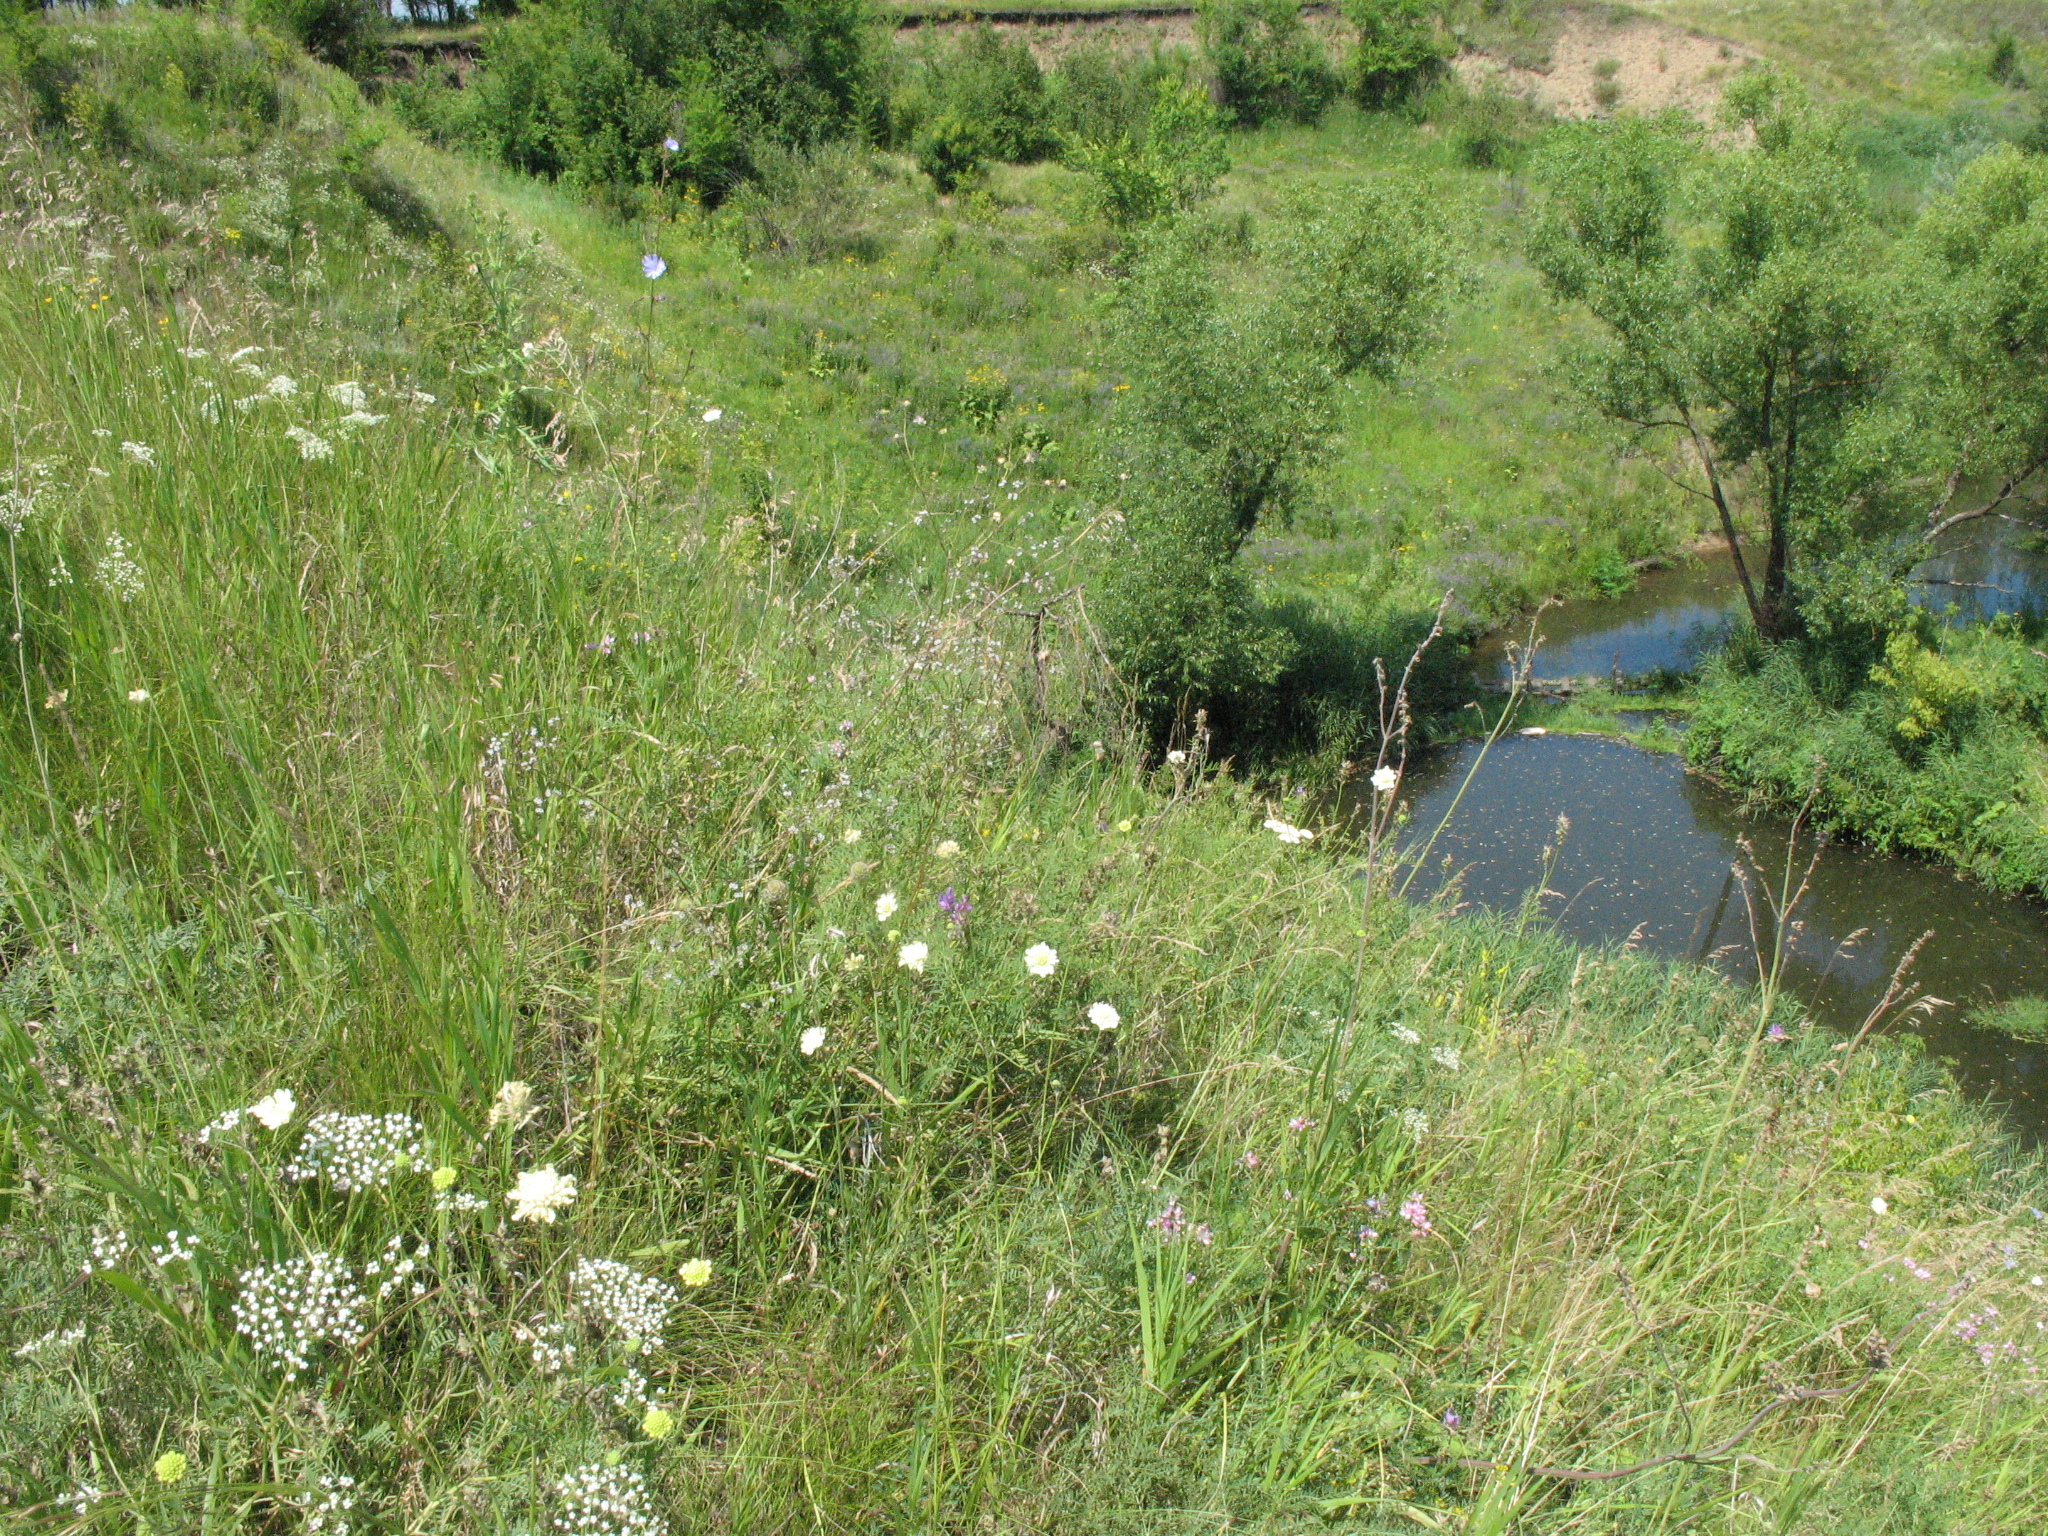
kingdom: Plantae
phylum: Tracheophyta
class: Magnoliopsida
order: Caryophyllales
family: Caryophyllaceae
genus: Gypsophila
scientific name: Gypsophila altissima
